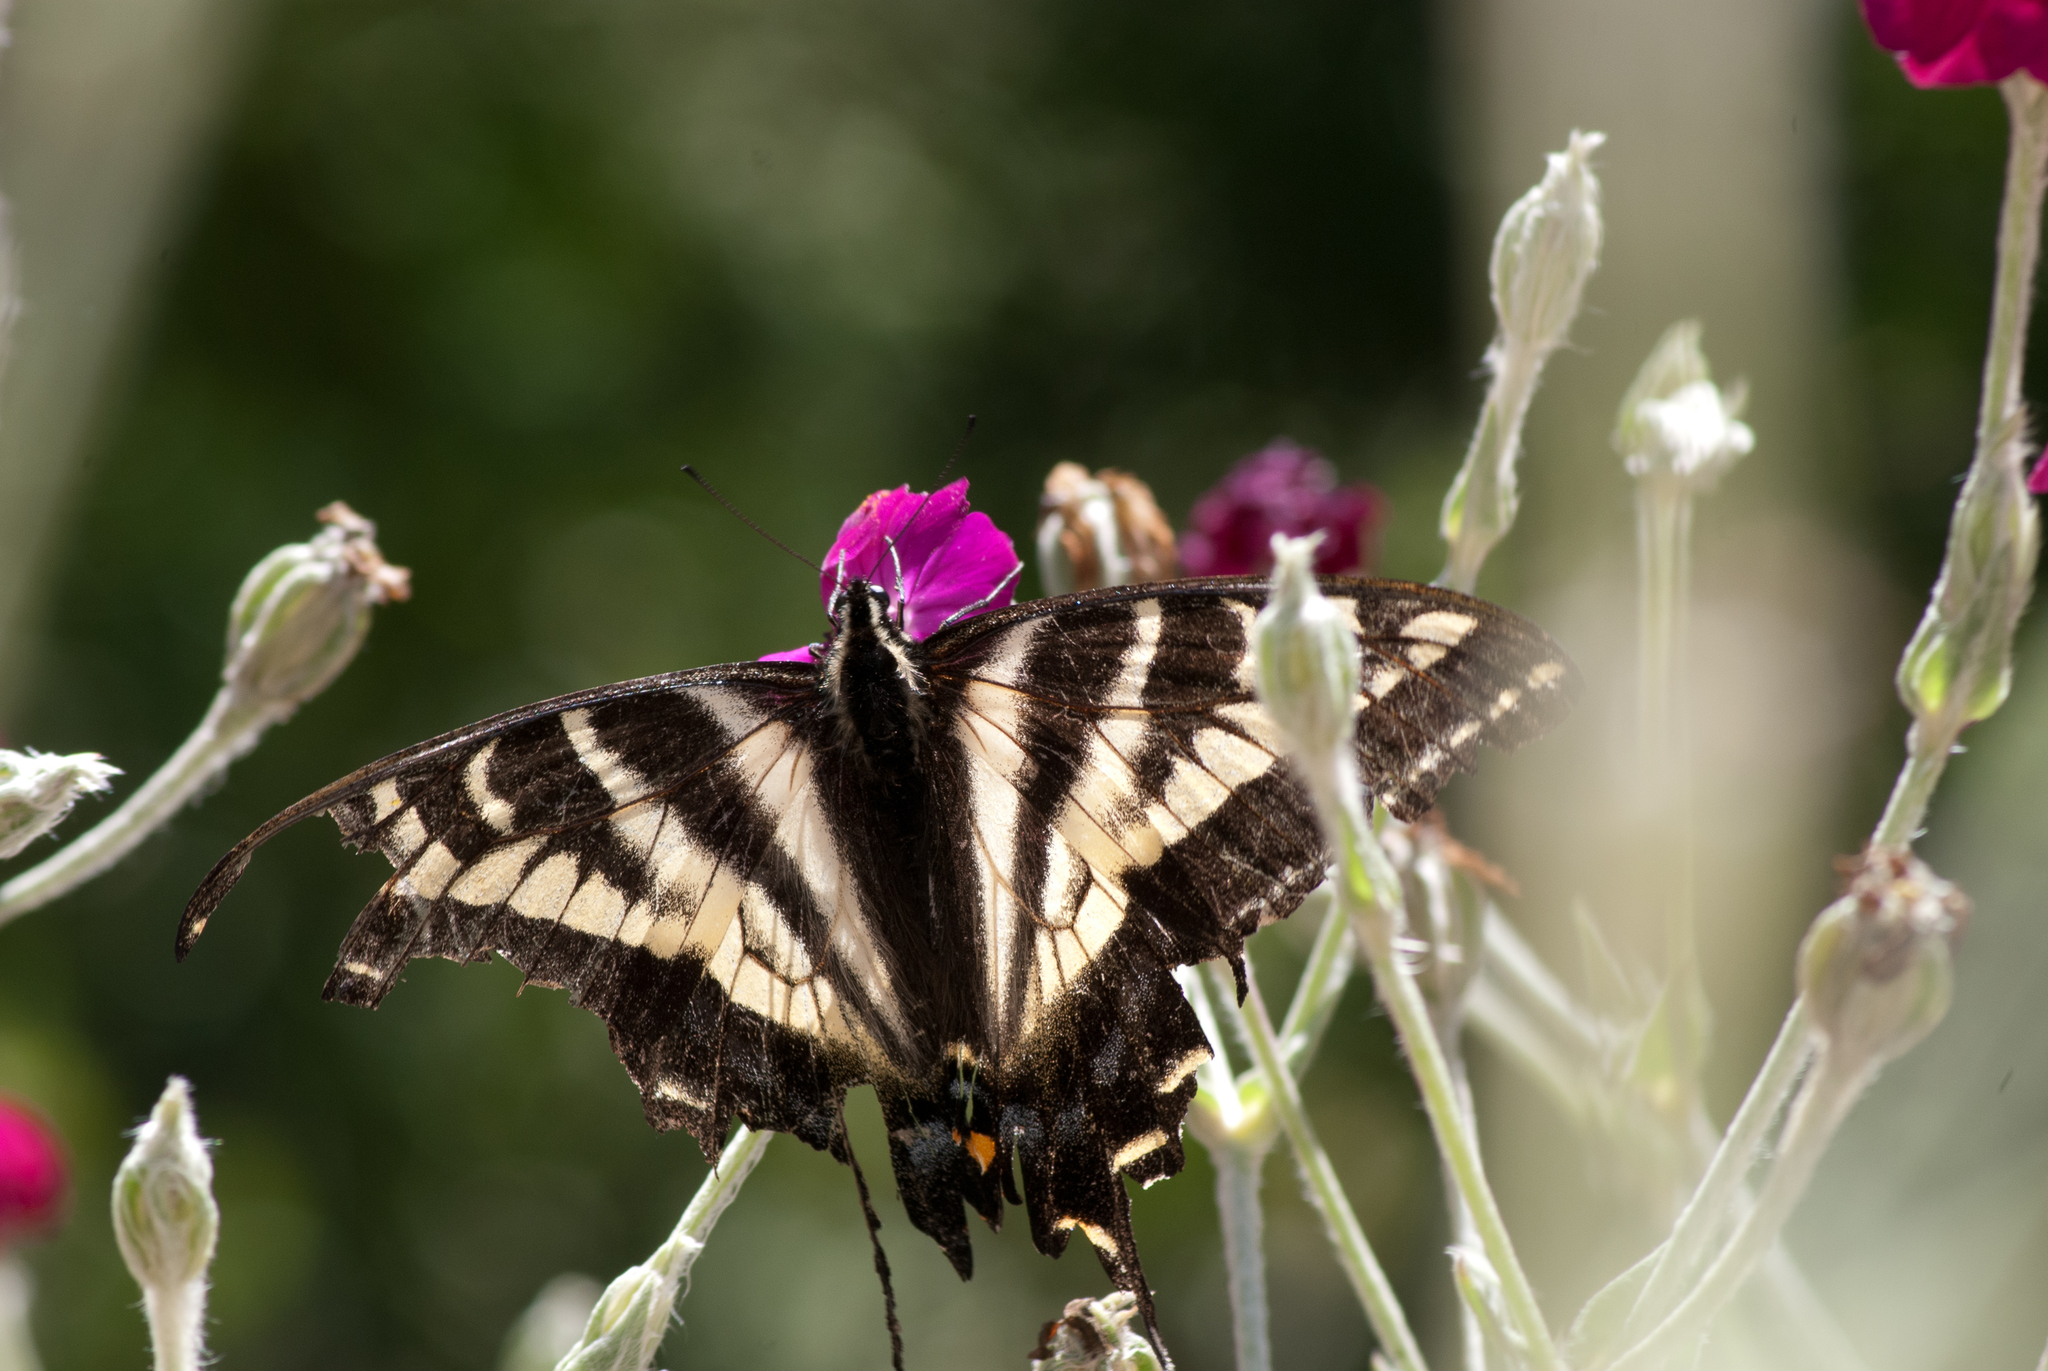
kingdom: Animalia
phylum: Arthropoda
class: Insecta
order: Lepidoptera
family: Papilionidae
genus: Papilio
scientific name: Papilio eurymedon
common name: Pale tiger swallowtail
